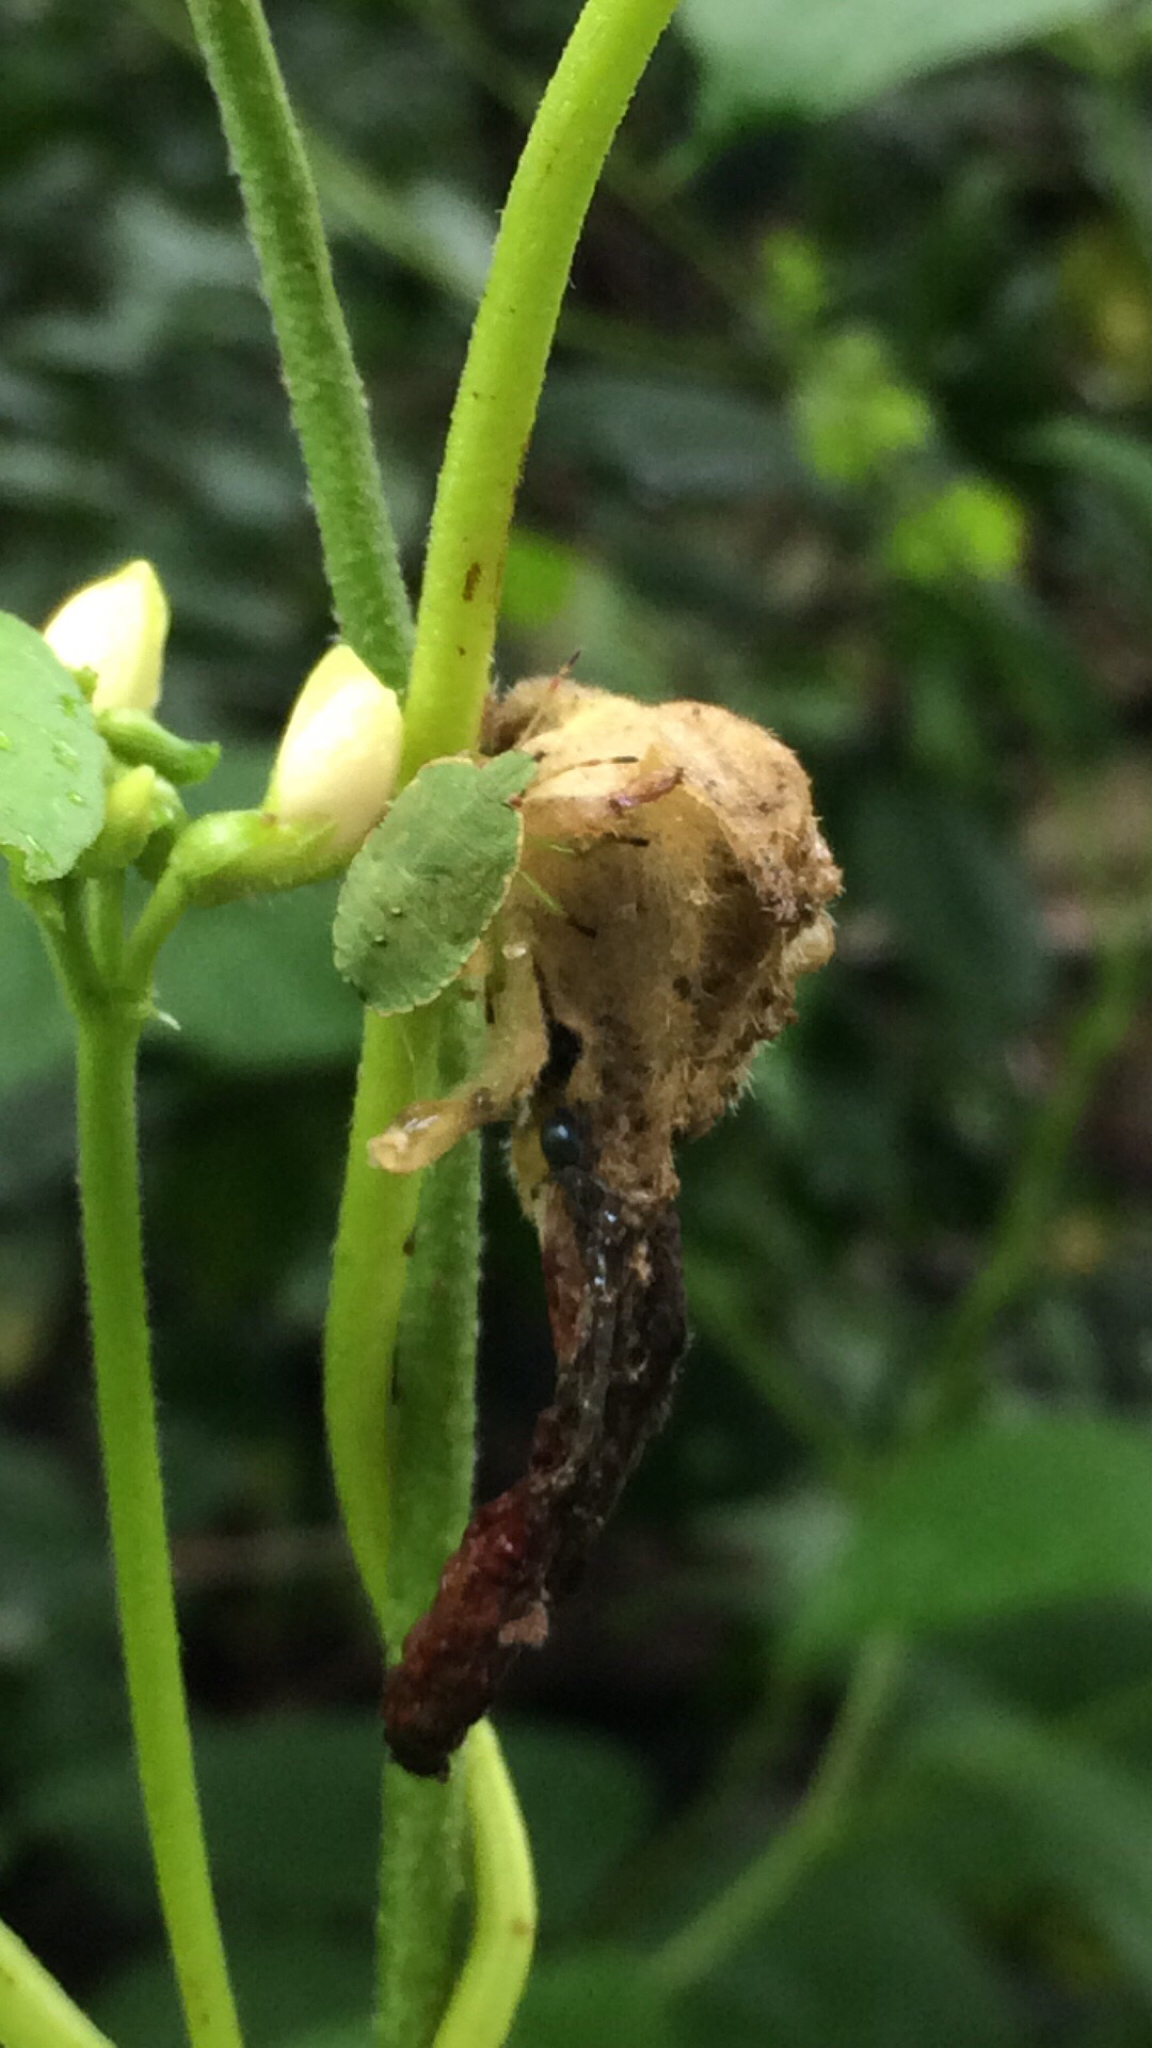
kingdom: Animalia
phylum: Arthropoda
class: Insecta
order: Hemiptera
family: Pentatomidae
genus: Palomena
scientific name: Palomena prasina
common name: Green shieldbug
